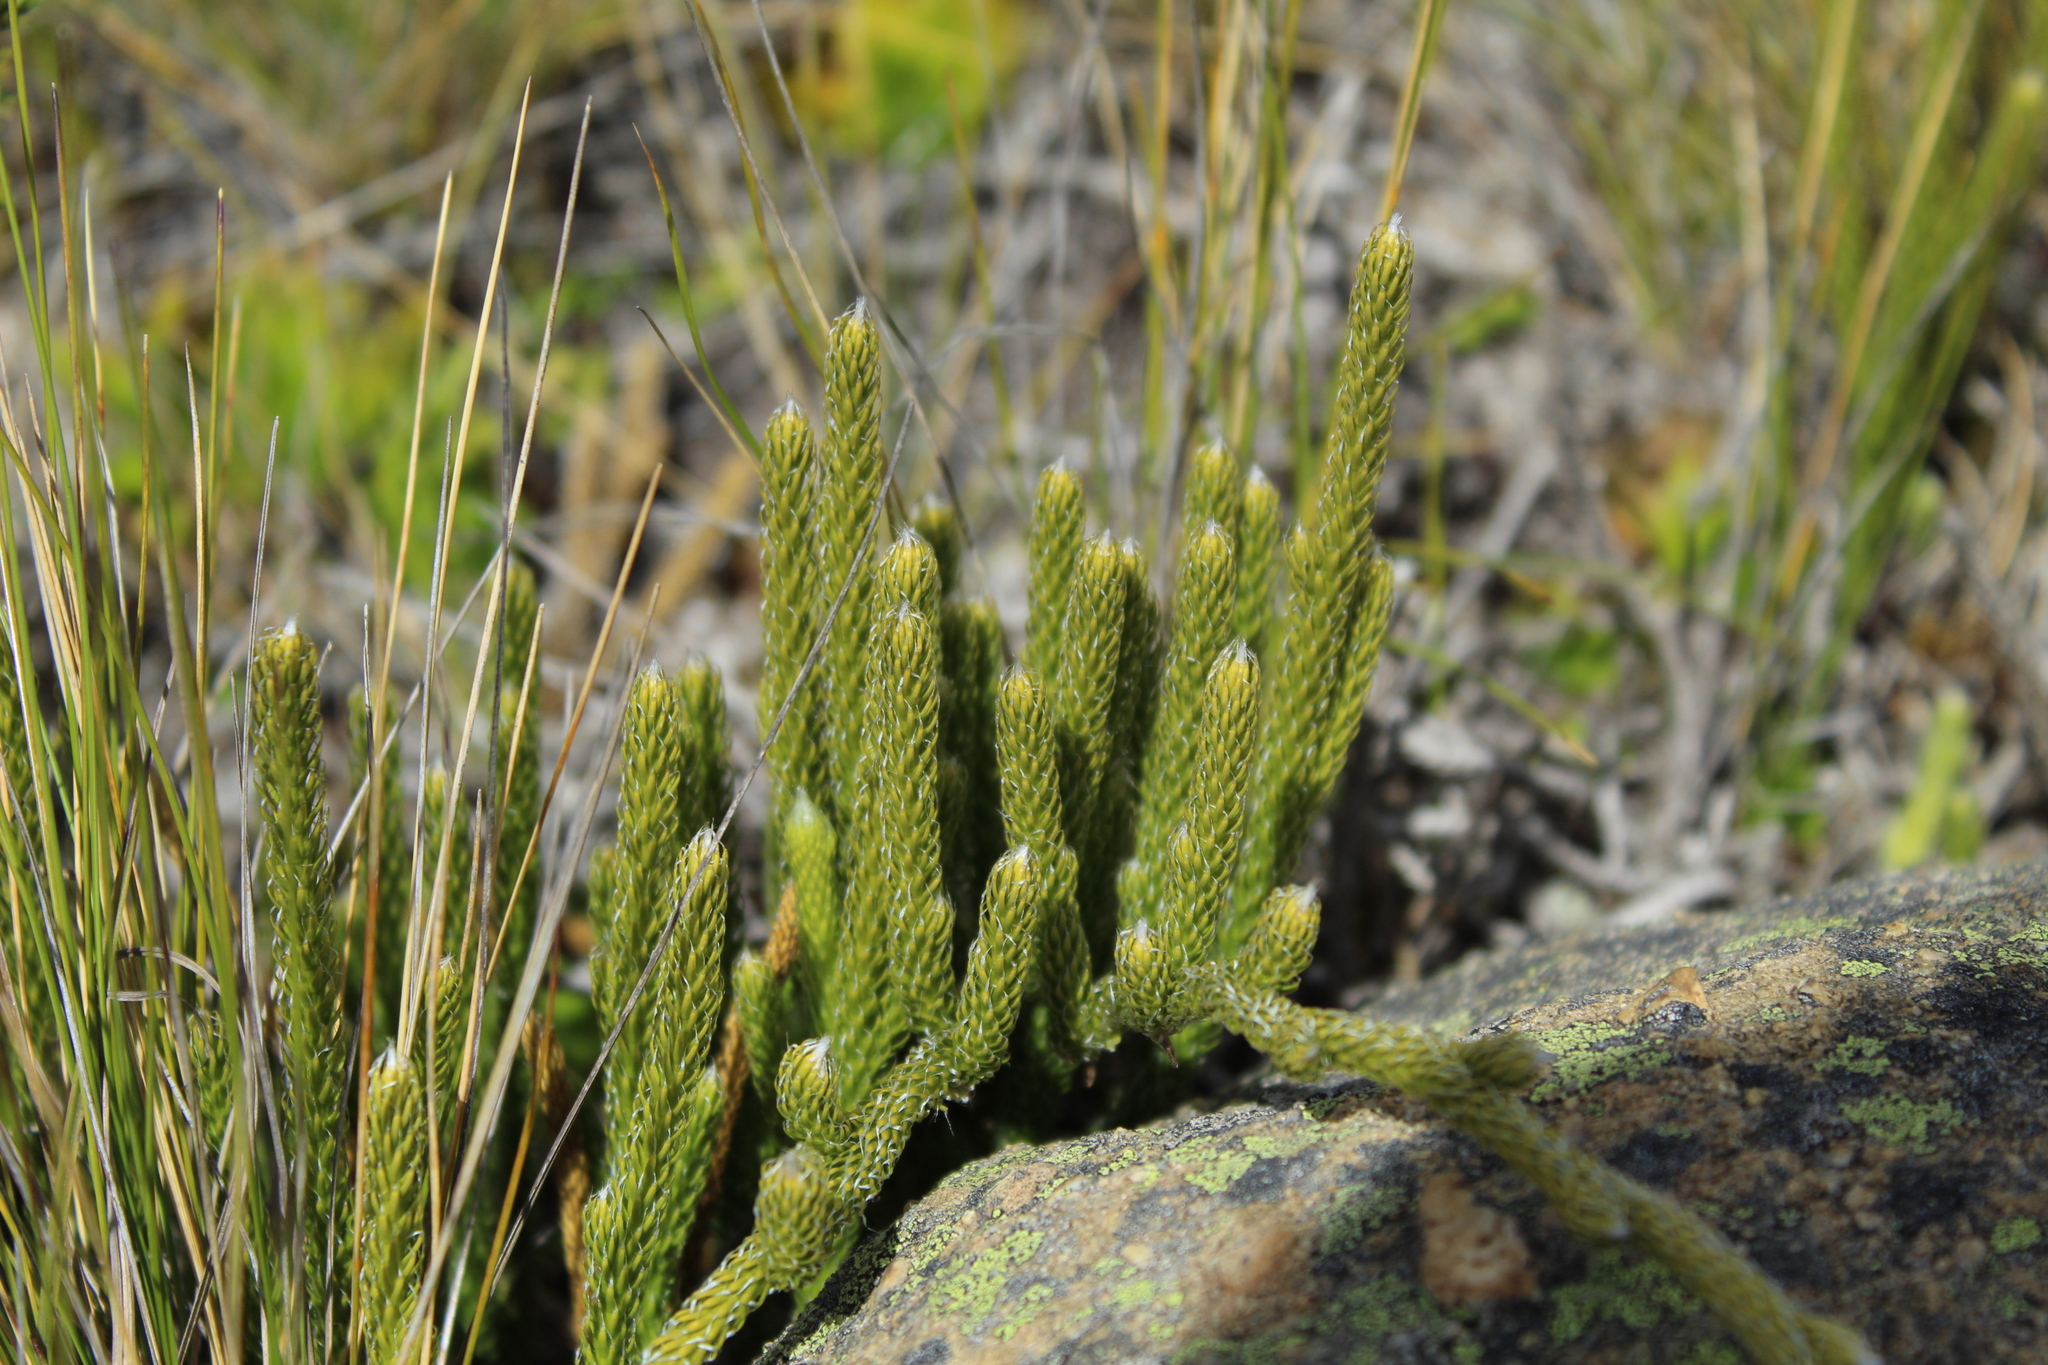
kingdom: Plantae
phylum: Tracheophyta
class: Lycopodiopsida
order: Lycopodiales
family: Lycopodiaceae
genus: Lycopodium
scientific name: Lycopodium clavatum
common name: Stag's-horn clubmoss
